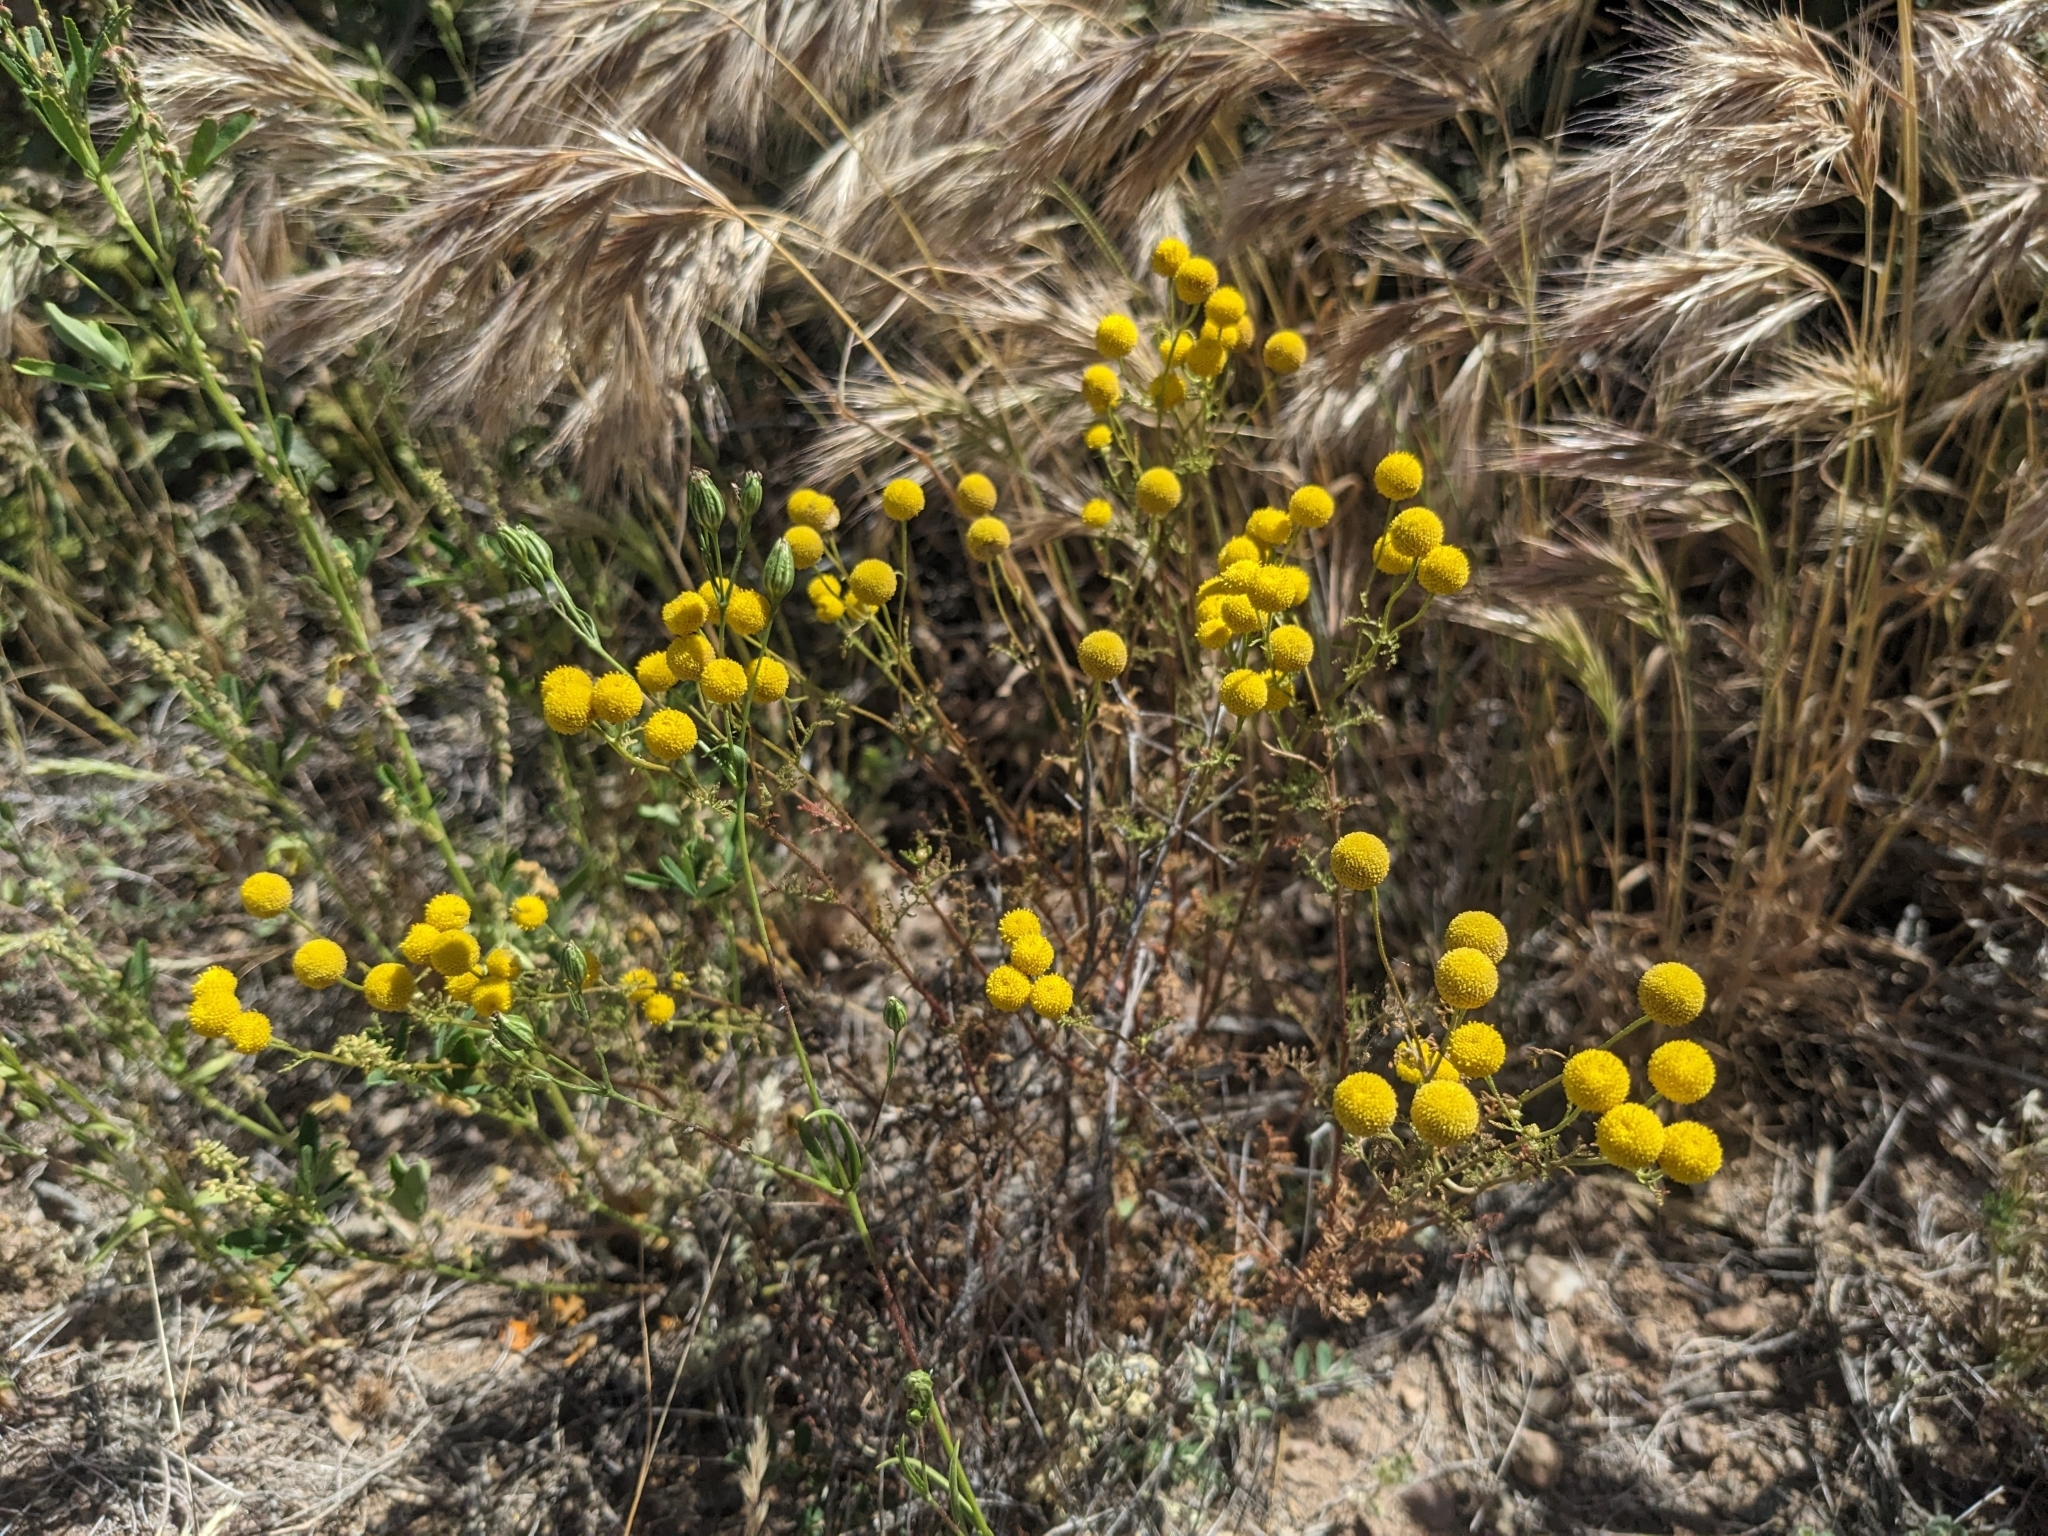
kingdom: Plantae
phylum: Tracheophyta
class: Magnoliopsida
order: Asterales
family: Asteraceae
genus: Oncosiphon
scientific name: Oncosiphon pilulifer
